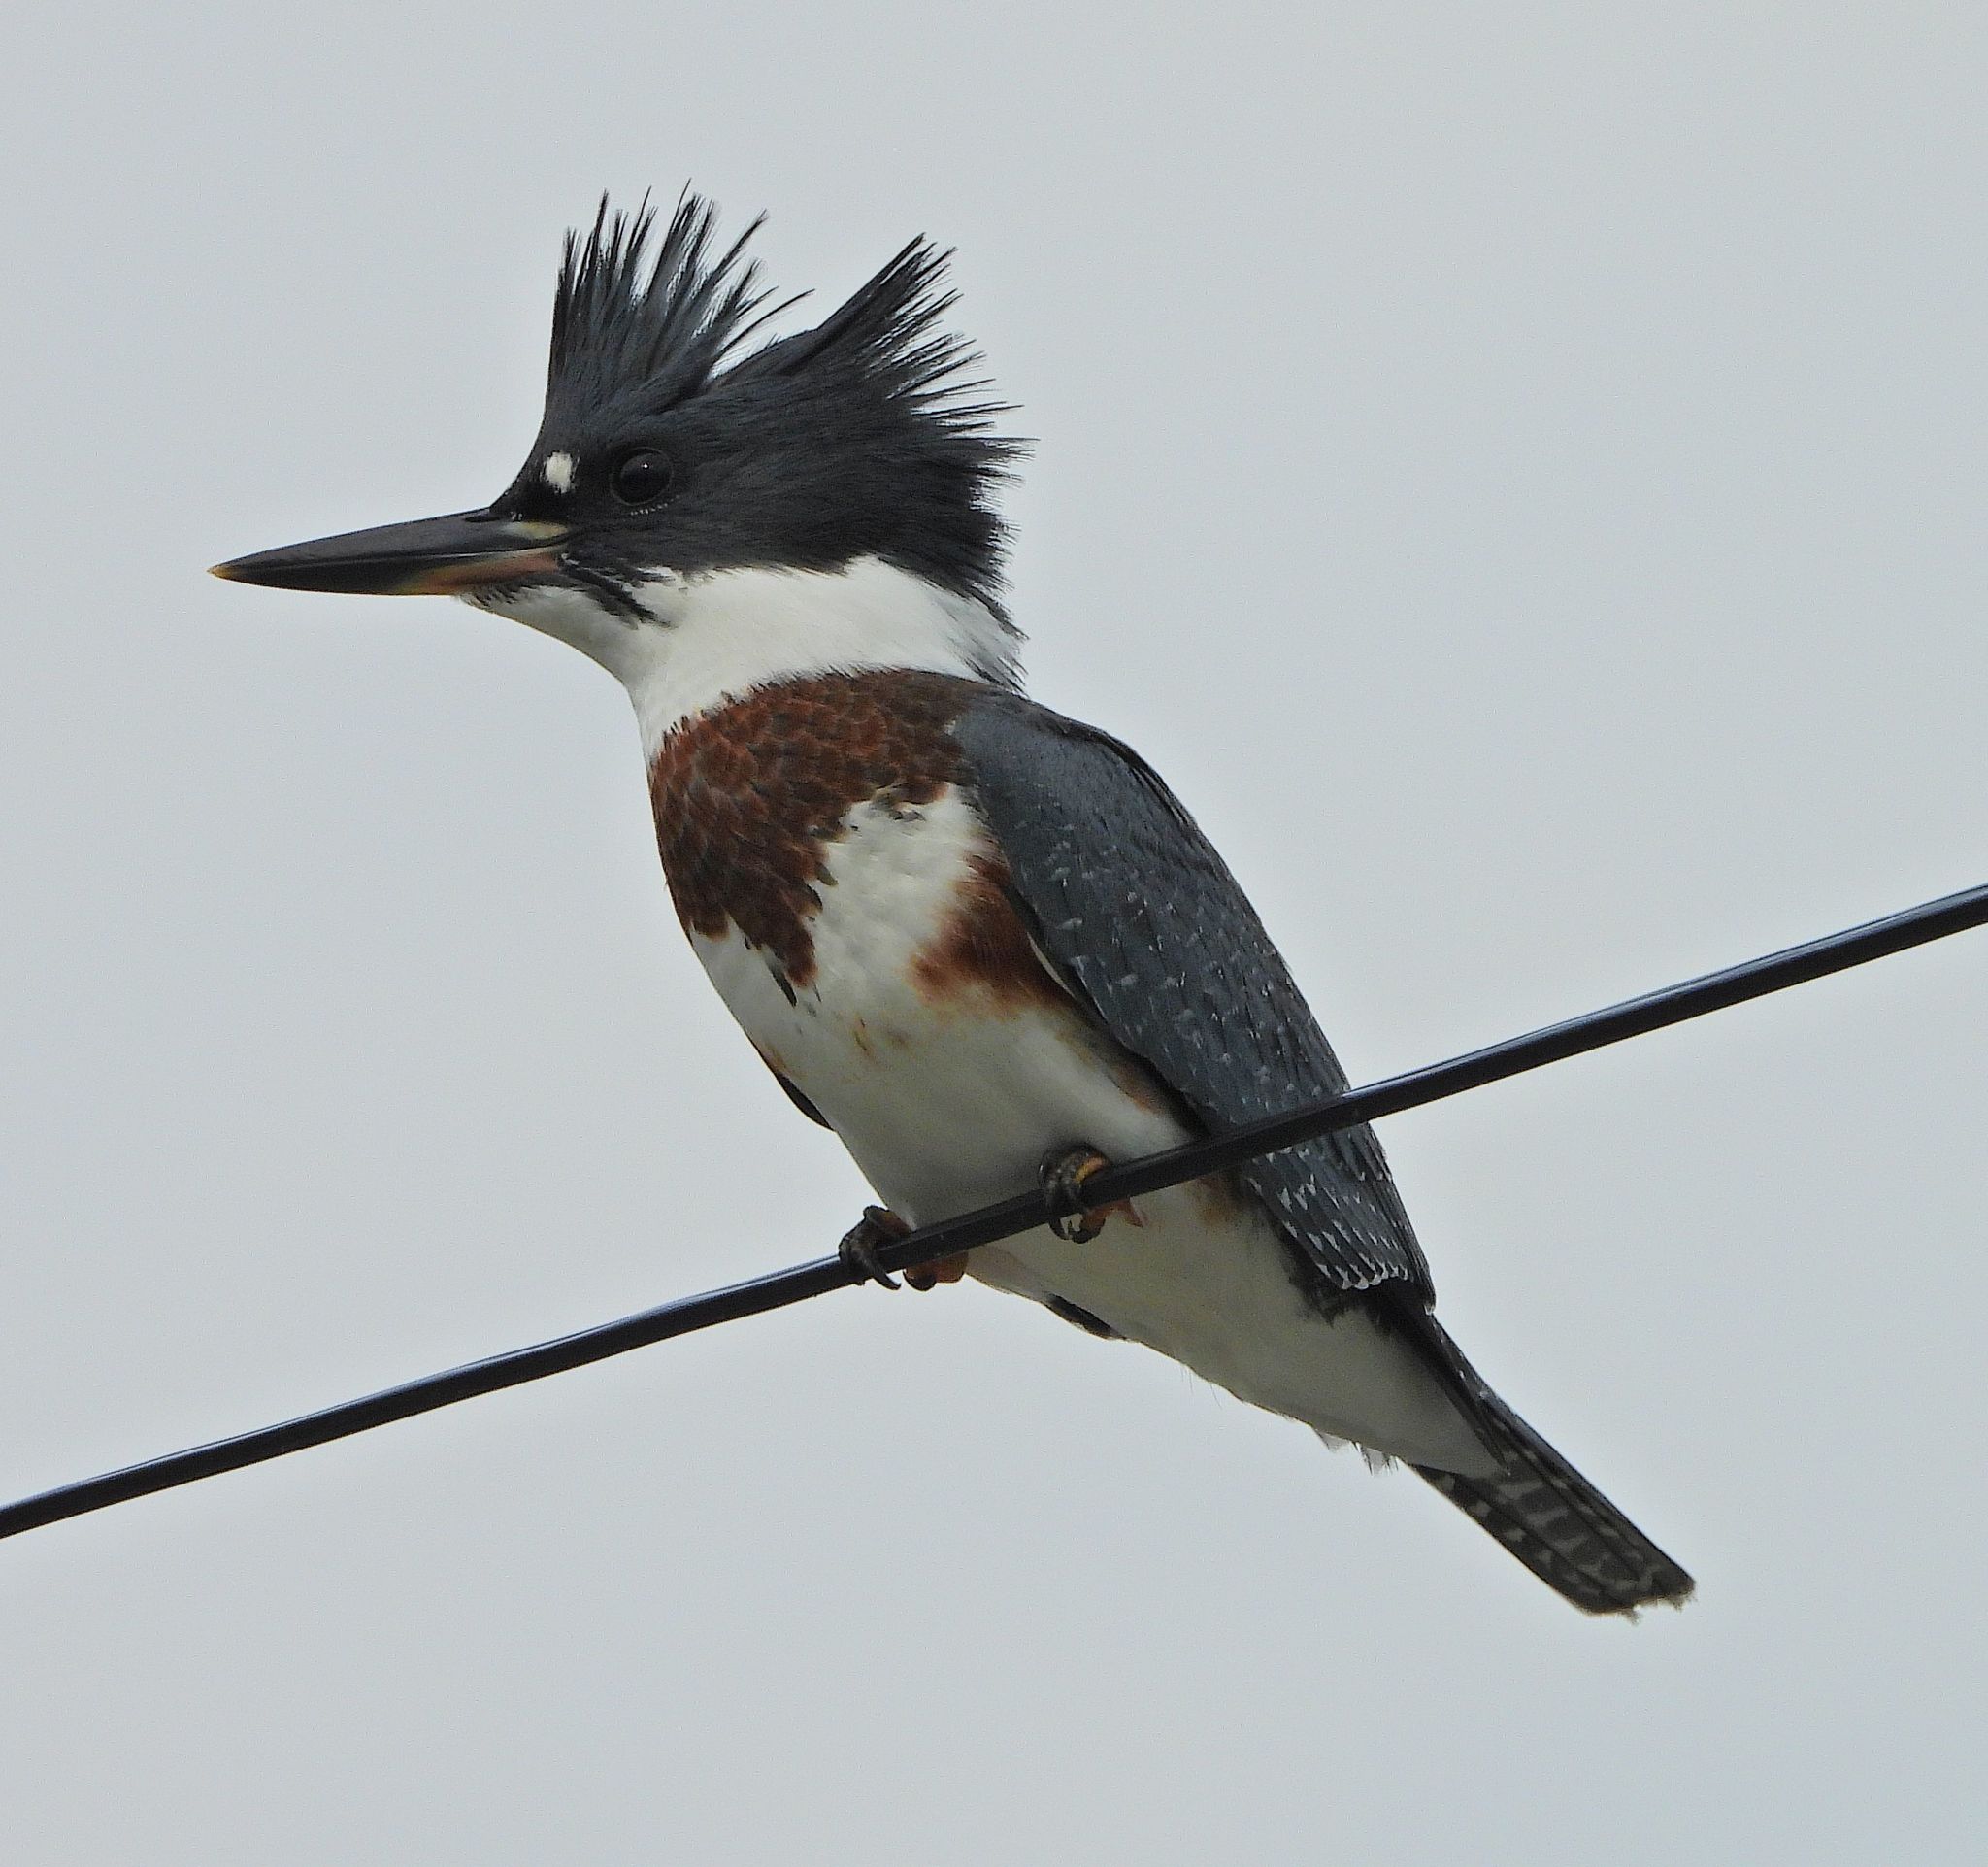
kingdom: Animalia
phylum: Chordata
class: Aves
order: Coraciiformes
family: Alcedinidae
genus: Megaceryle
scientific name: Megaceryle alcyon
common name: Belted kingfisher
